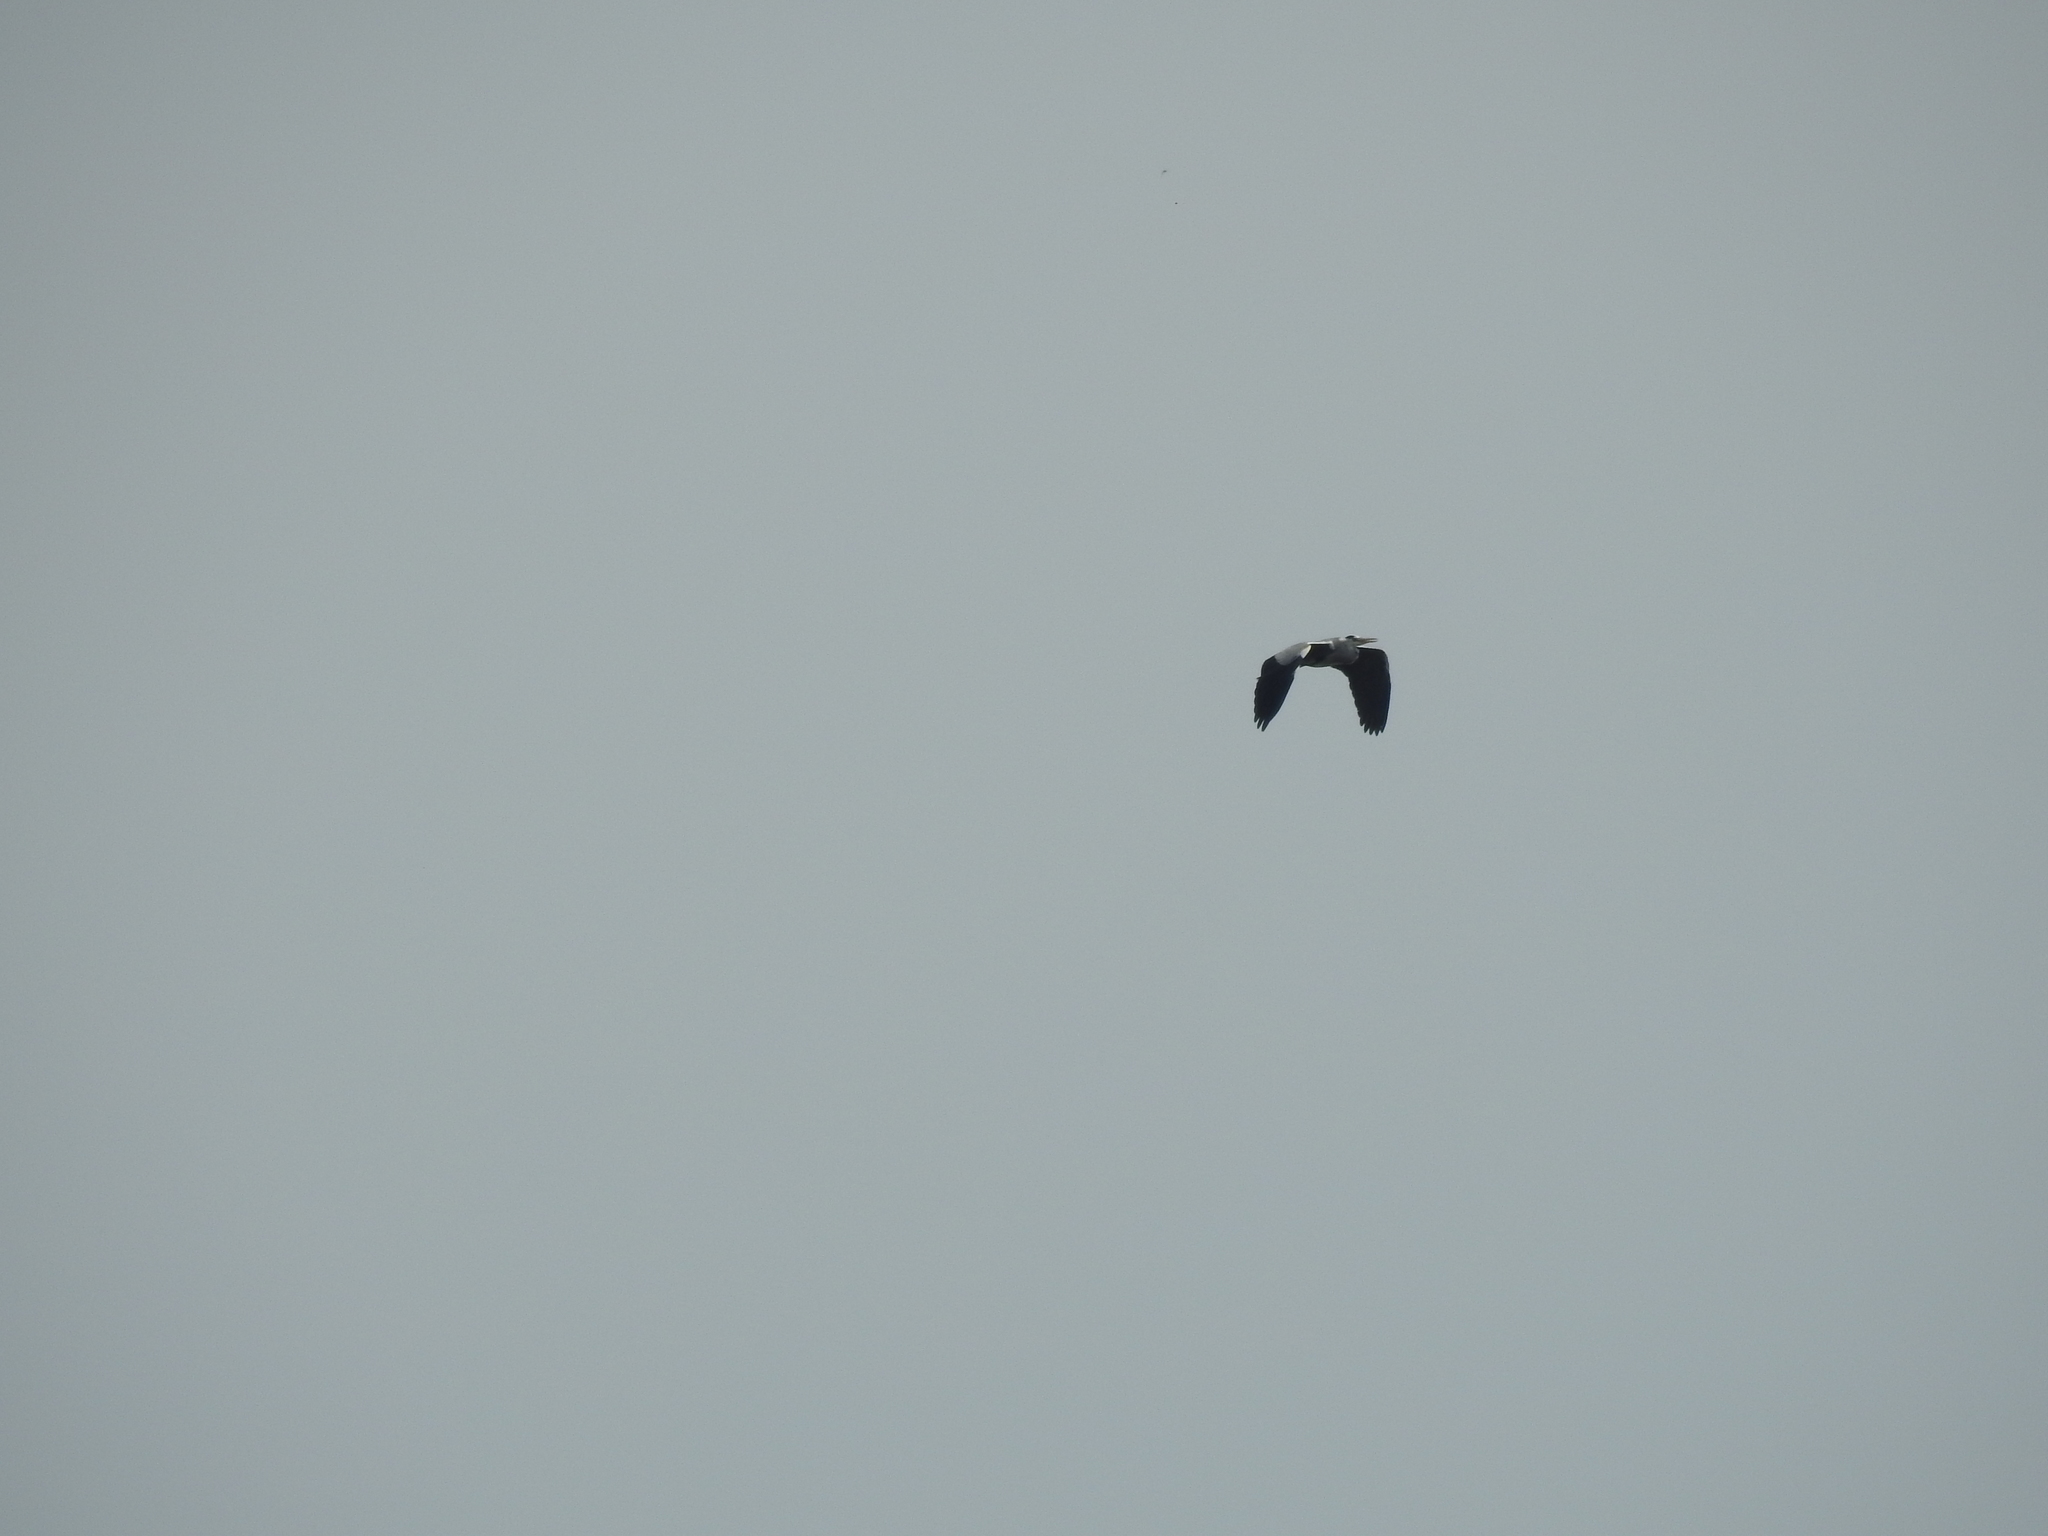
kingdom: Animalia
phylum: Chordata
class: Aves
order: Pelecaniformes
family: Ardeidae
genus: Ardea
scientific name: Ardea cinerea
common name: Grey heron
